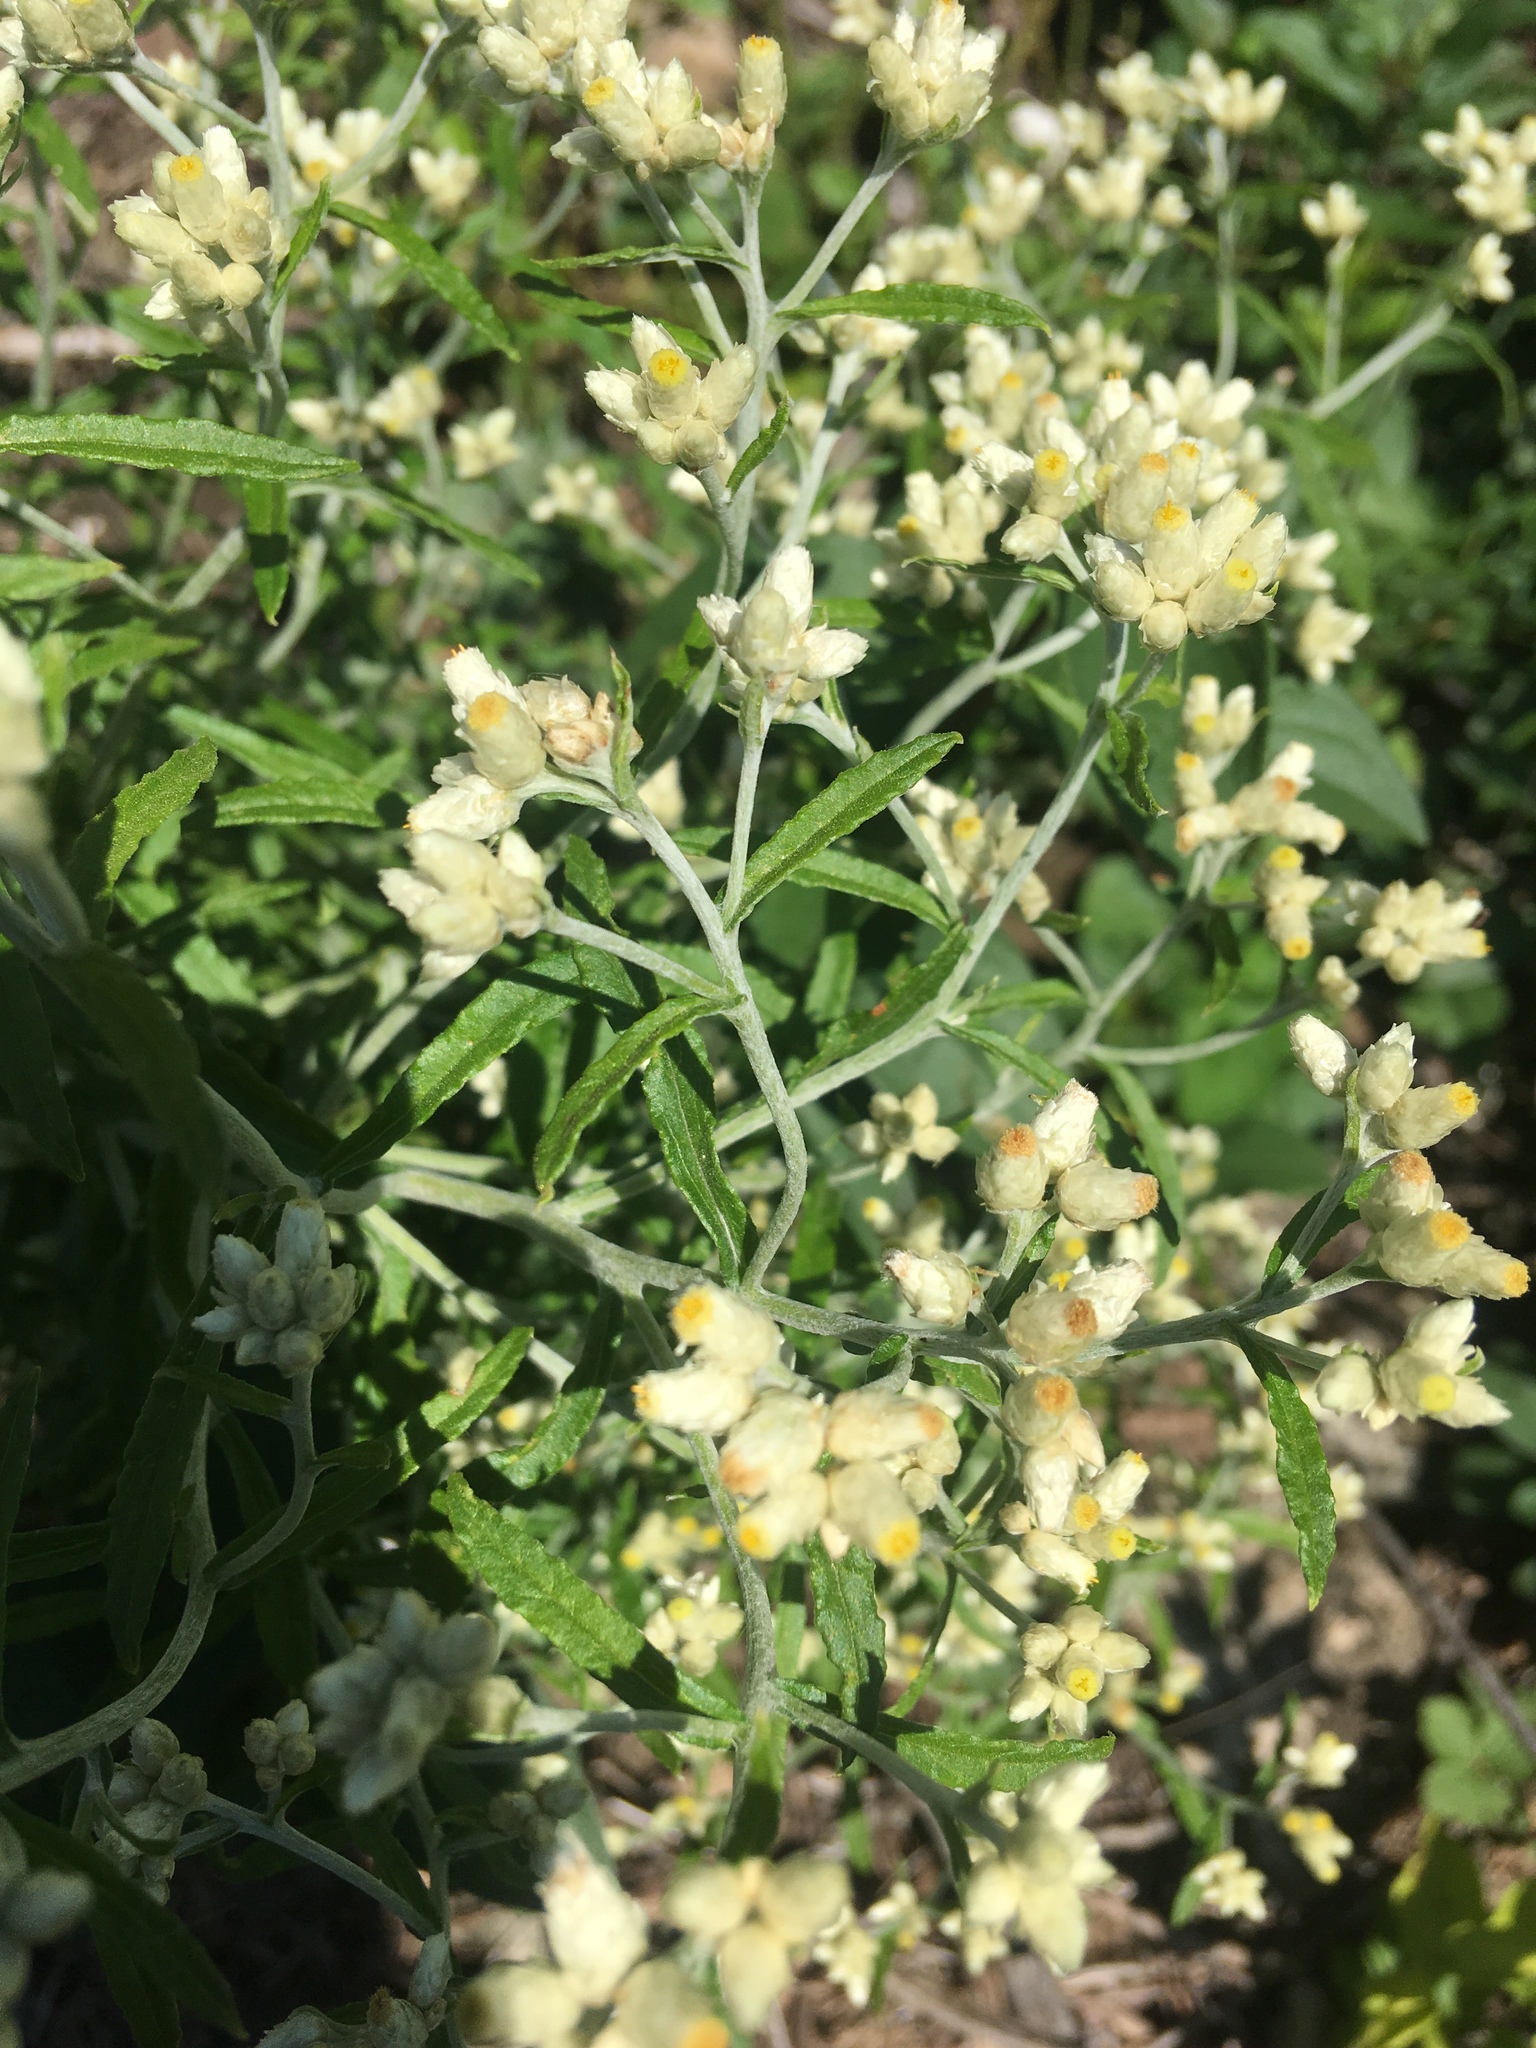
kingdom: Plantae
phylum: Tracheophyta
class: Magnoliopsida
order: Asterales
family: Asteraceae
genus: Pseudognaphalium
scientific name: Pseudognaphalium obtusifolium
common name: Eastern rabbit-tobacco
